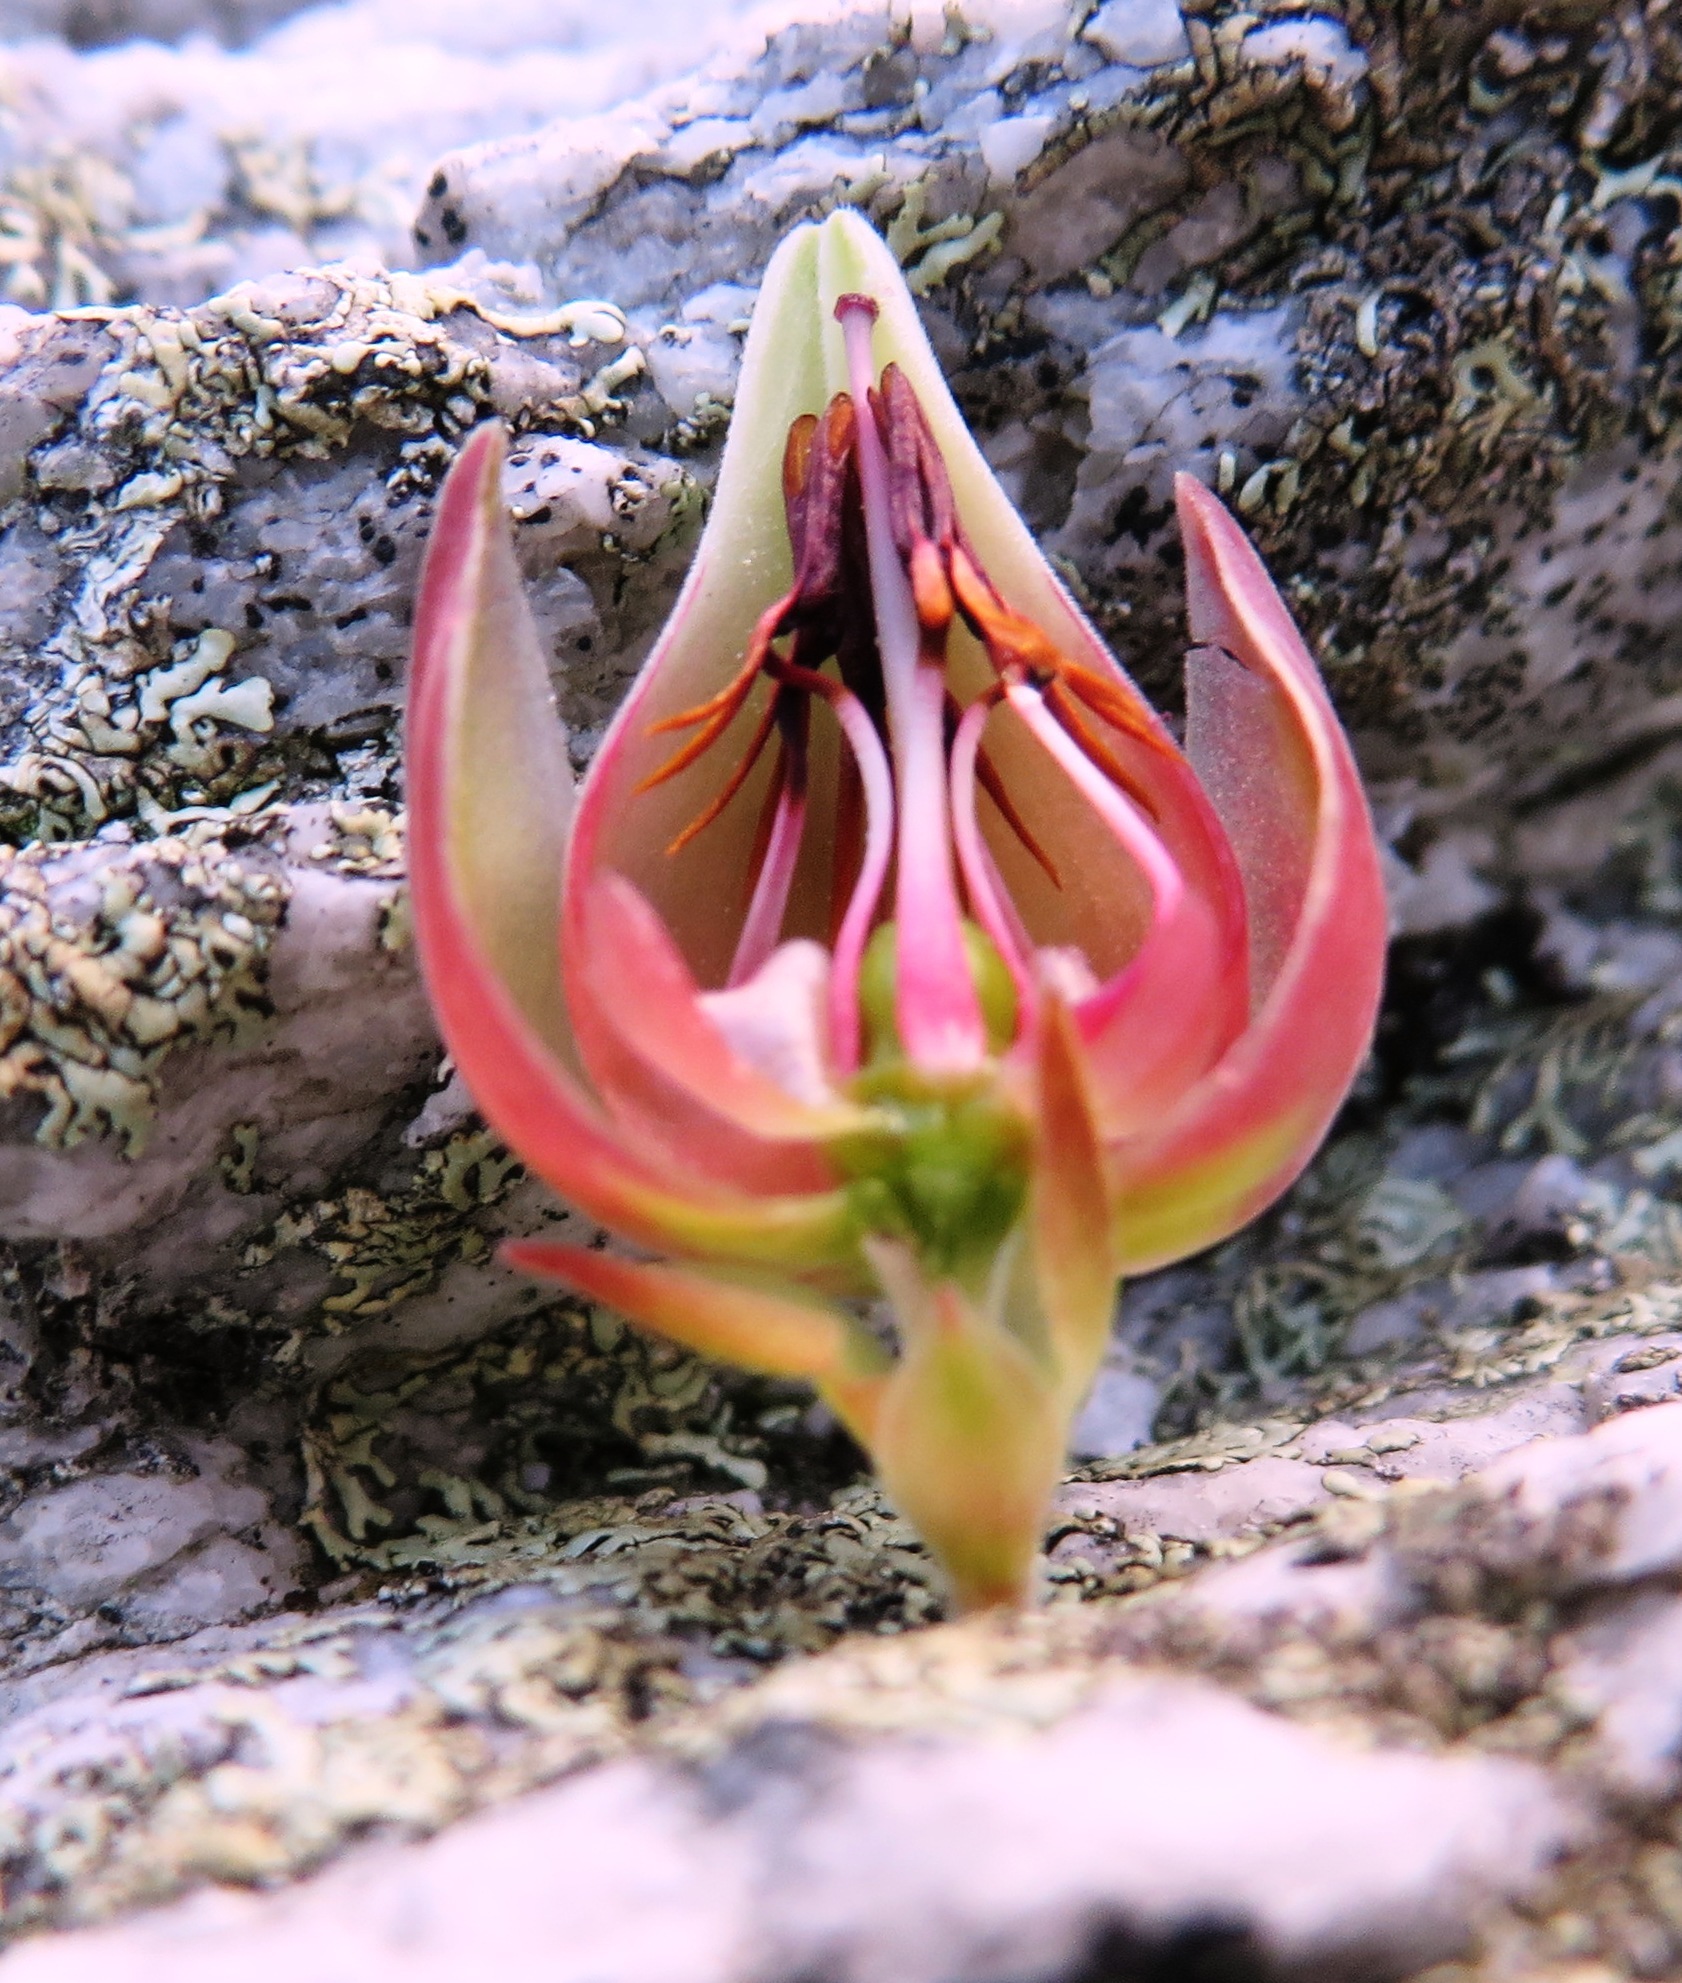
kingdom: Plantae
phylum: Tracheophyta
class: Magnoliopsida
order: Ericales
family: Ericaceae
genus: Erica
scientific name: Erica lanuginosa
